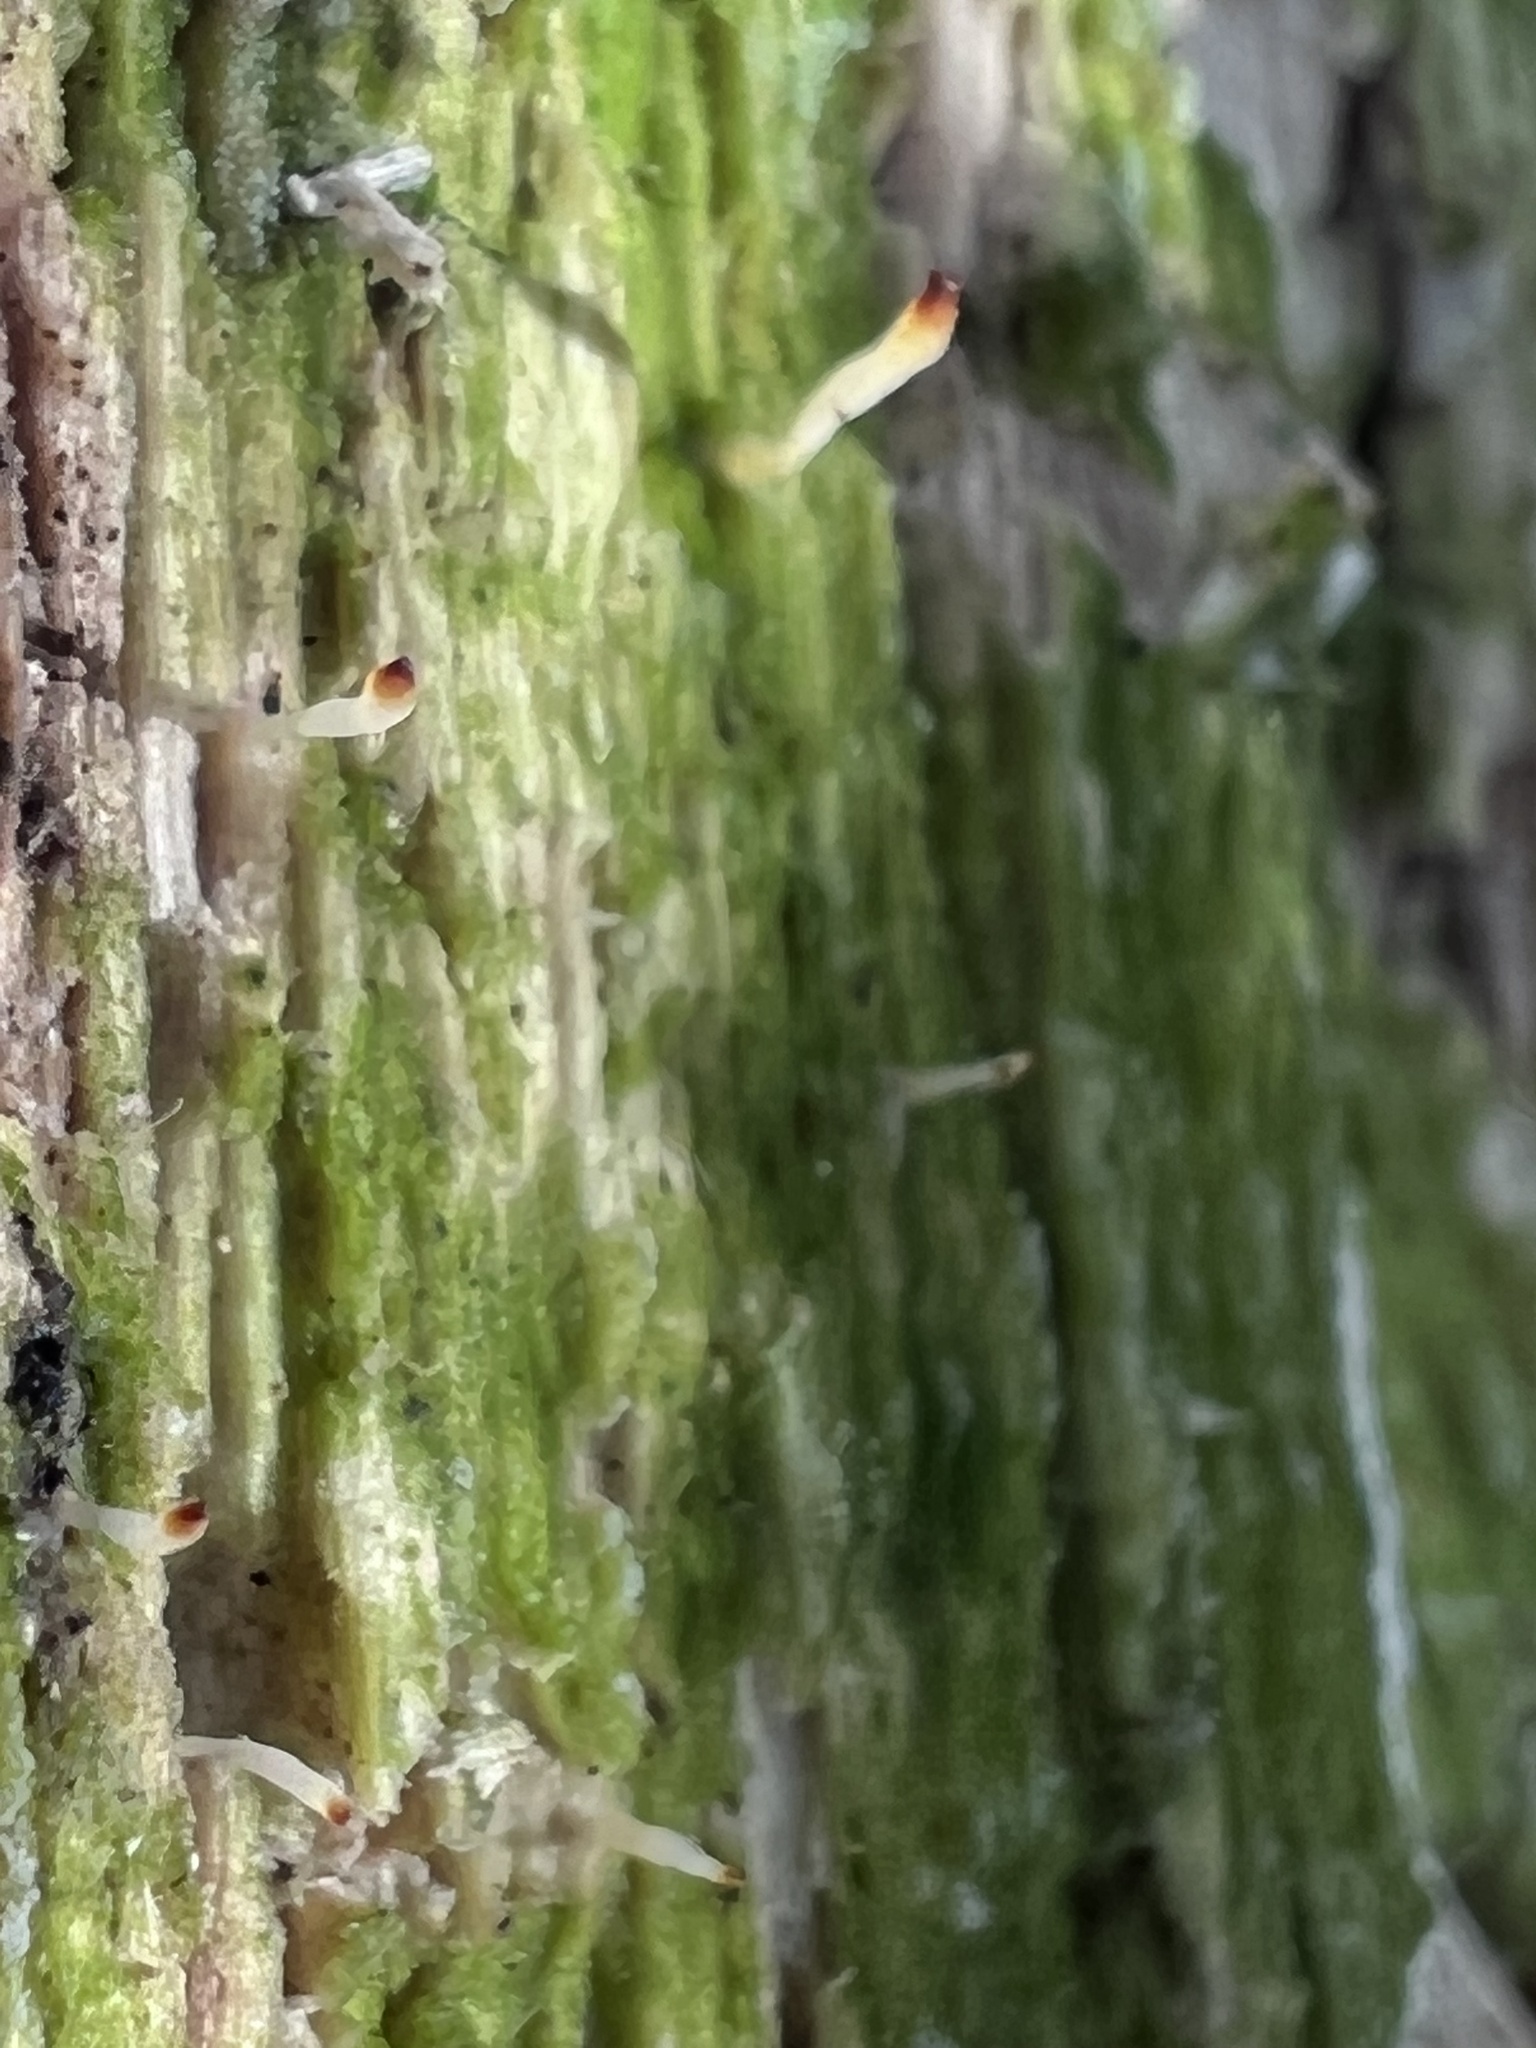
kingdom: Fungi
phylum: Basidiomycota
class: Agaricomycetes
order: Cantharellales
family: Hydnaceae
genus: Multiclavula
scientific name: Multiclavula mucida
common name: White green-algae coral
